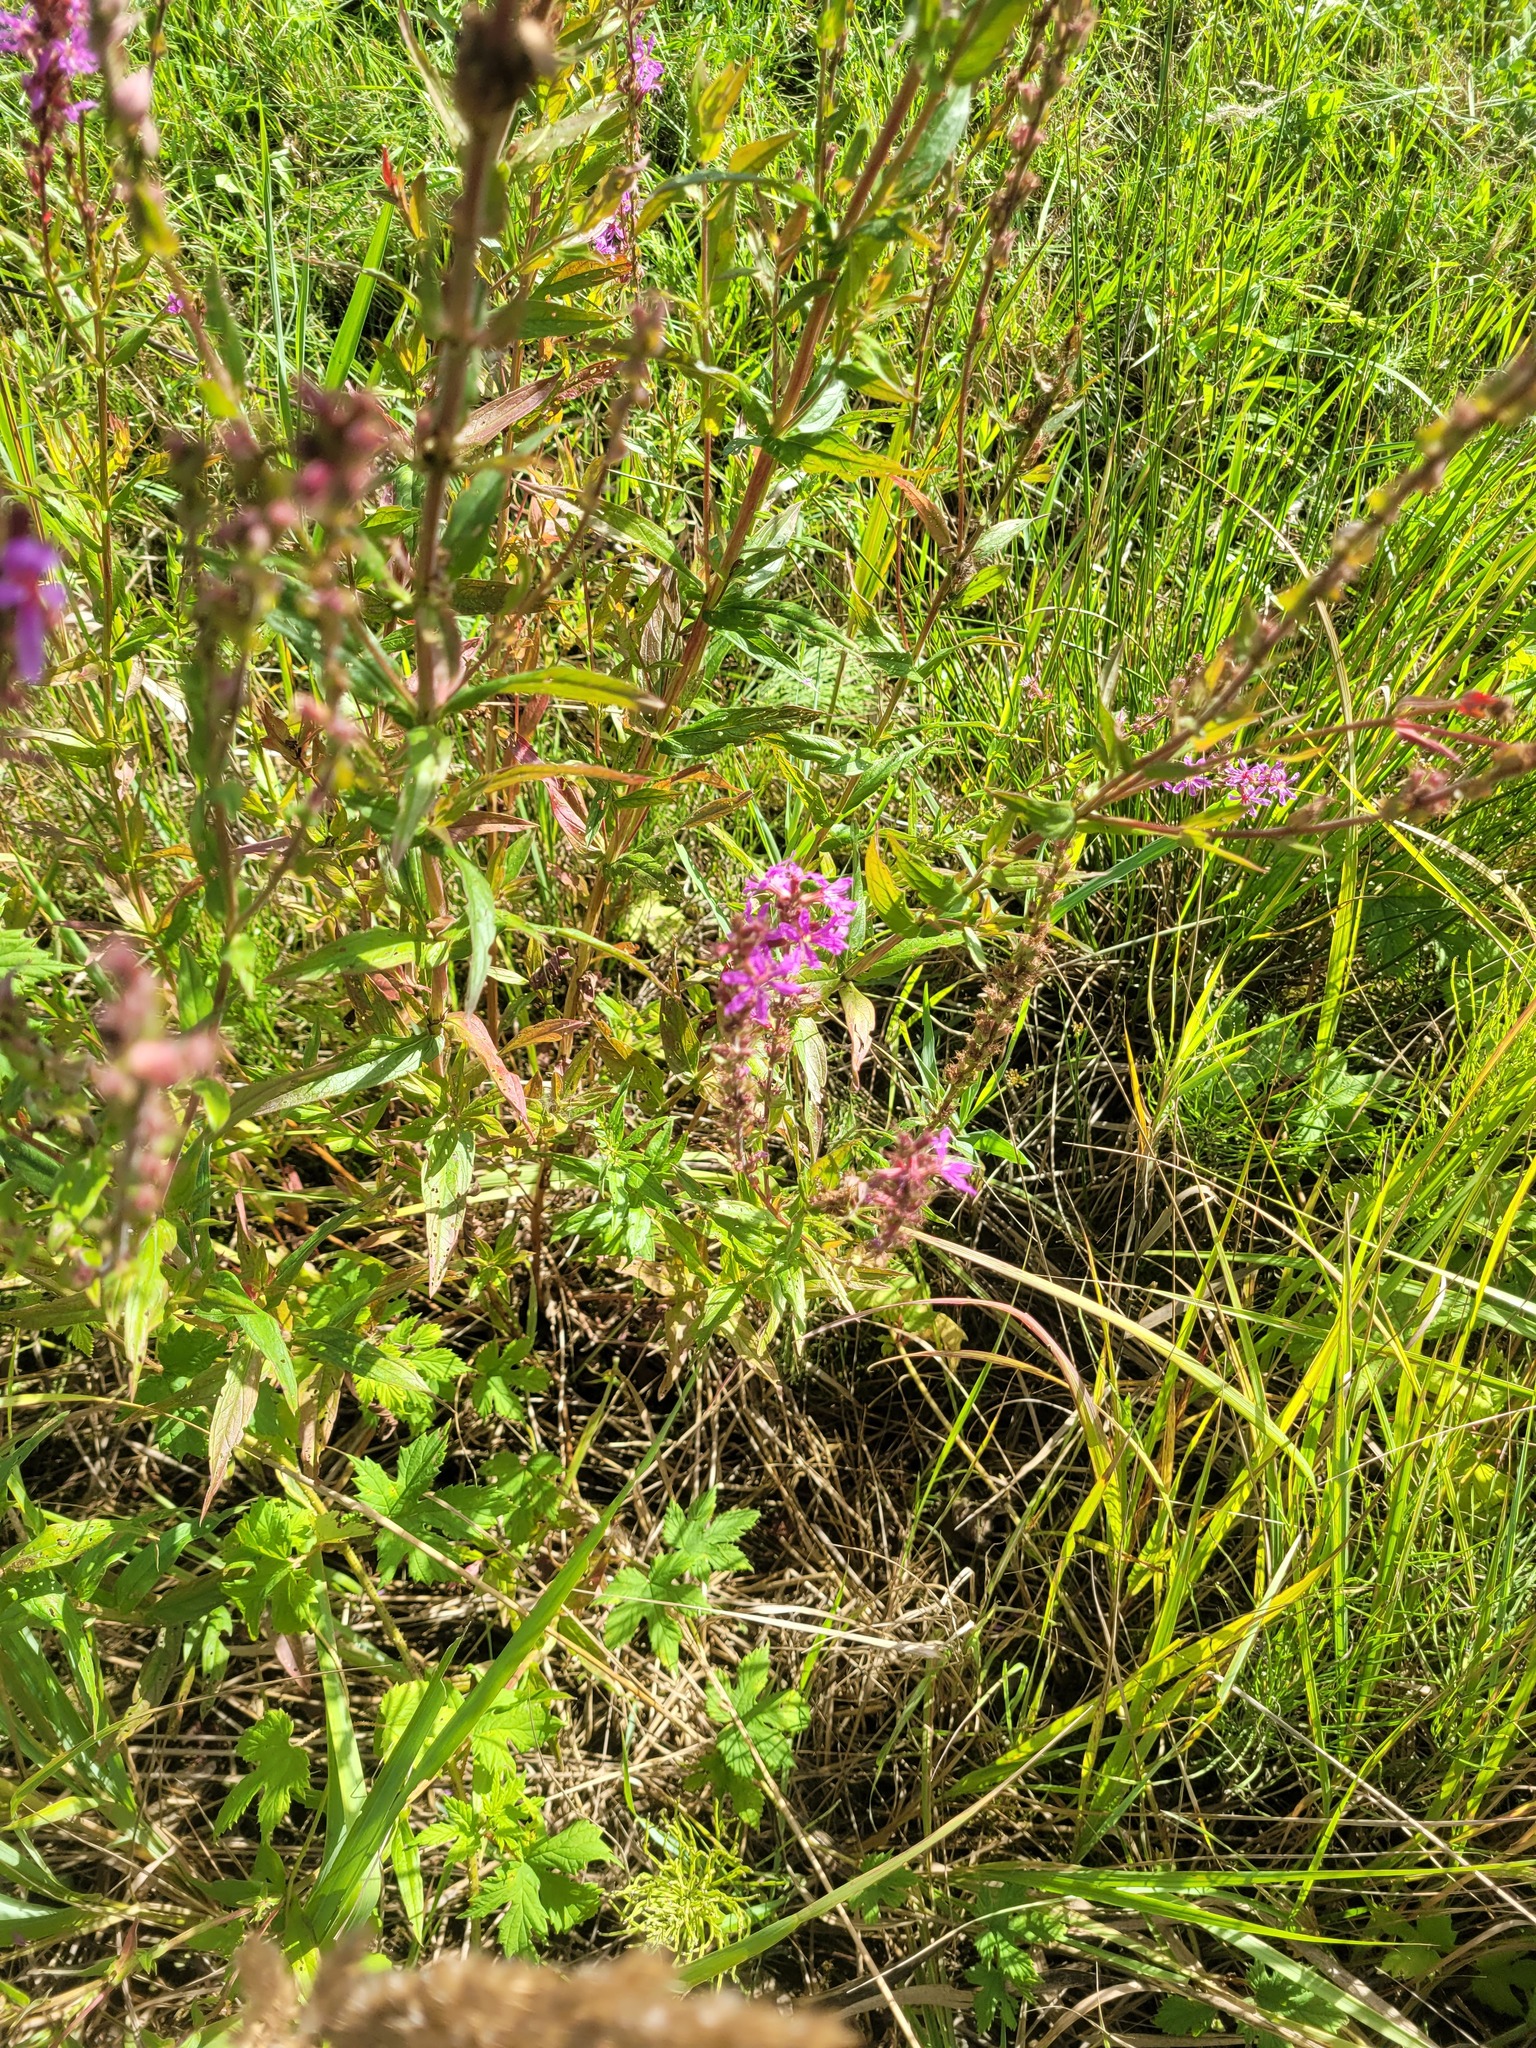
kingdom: Plantae
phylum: Tracheophyta
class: Magnoliopsida
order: Myrtales
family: Lythraceae
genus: Lythrum
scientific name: Lythrum salicaria
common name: Purple loosestrife
